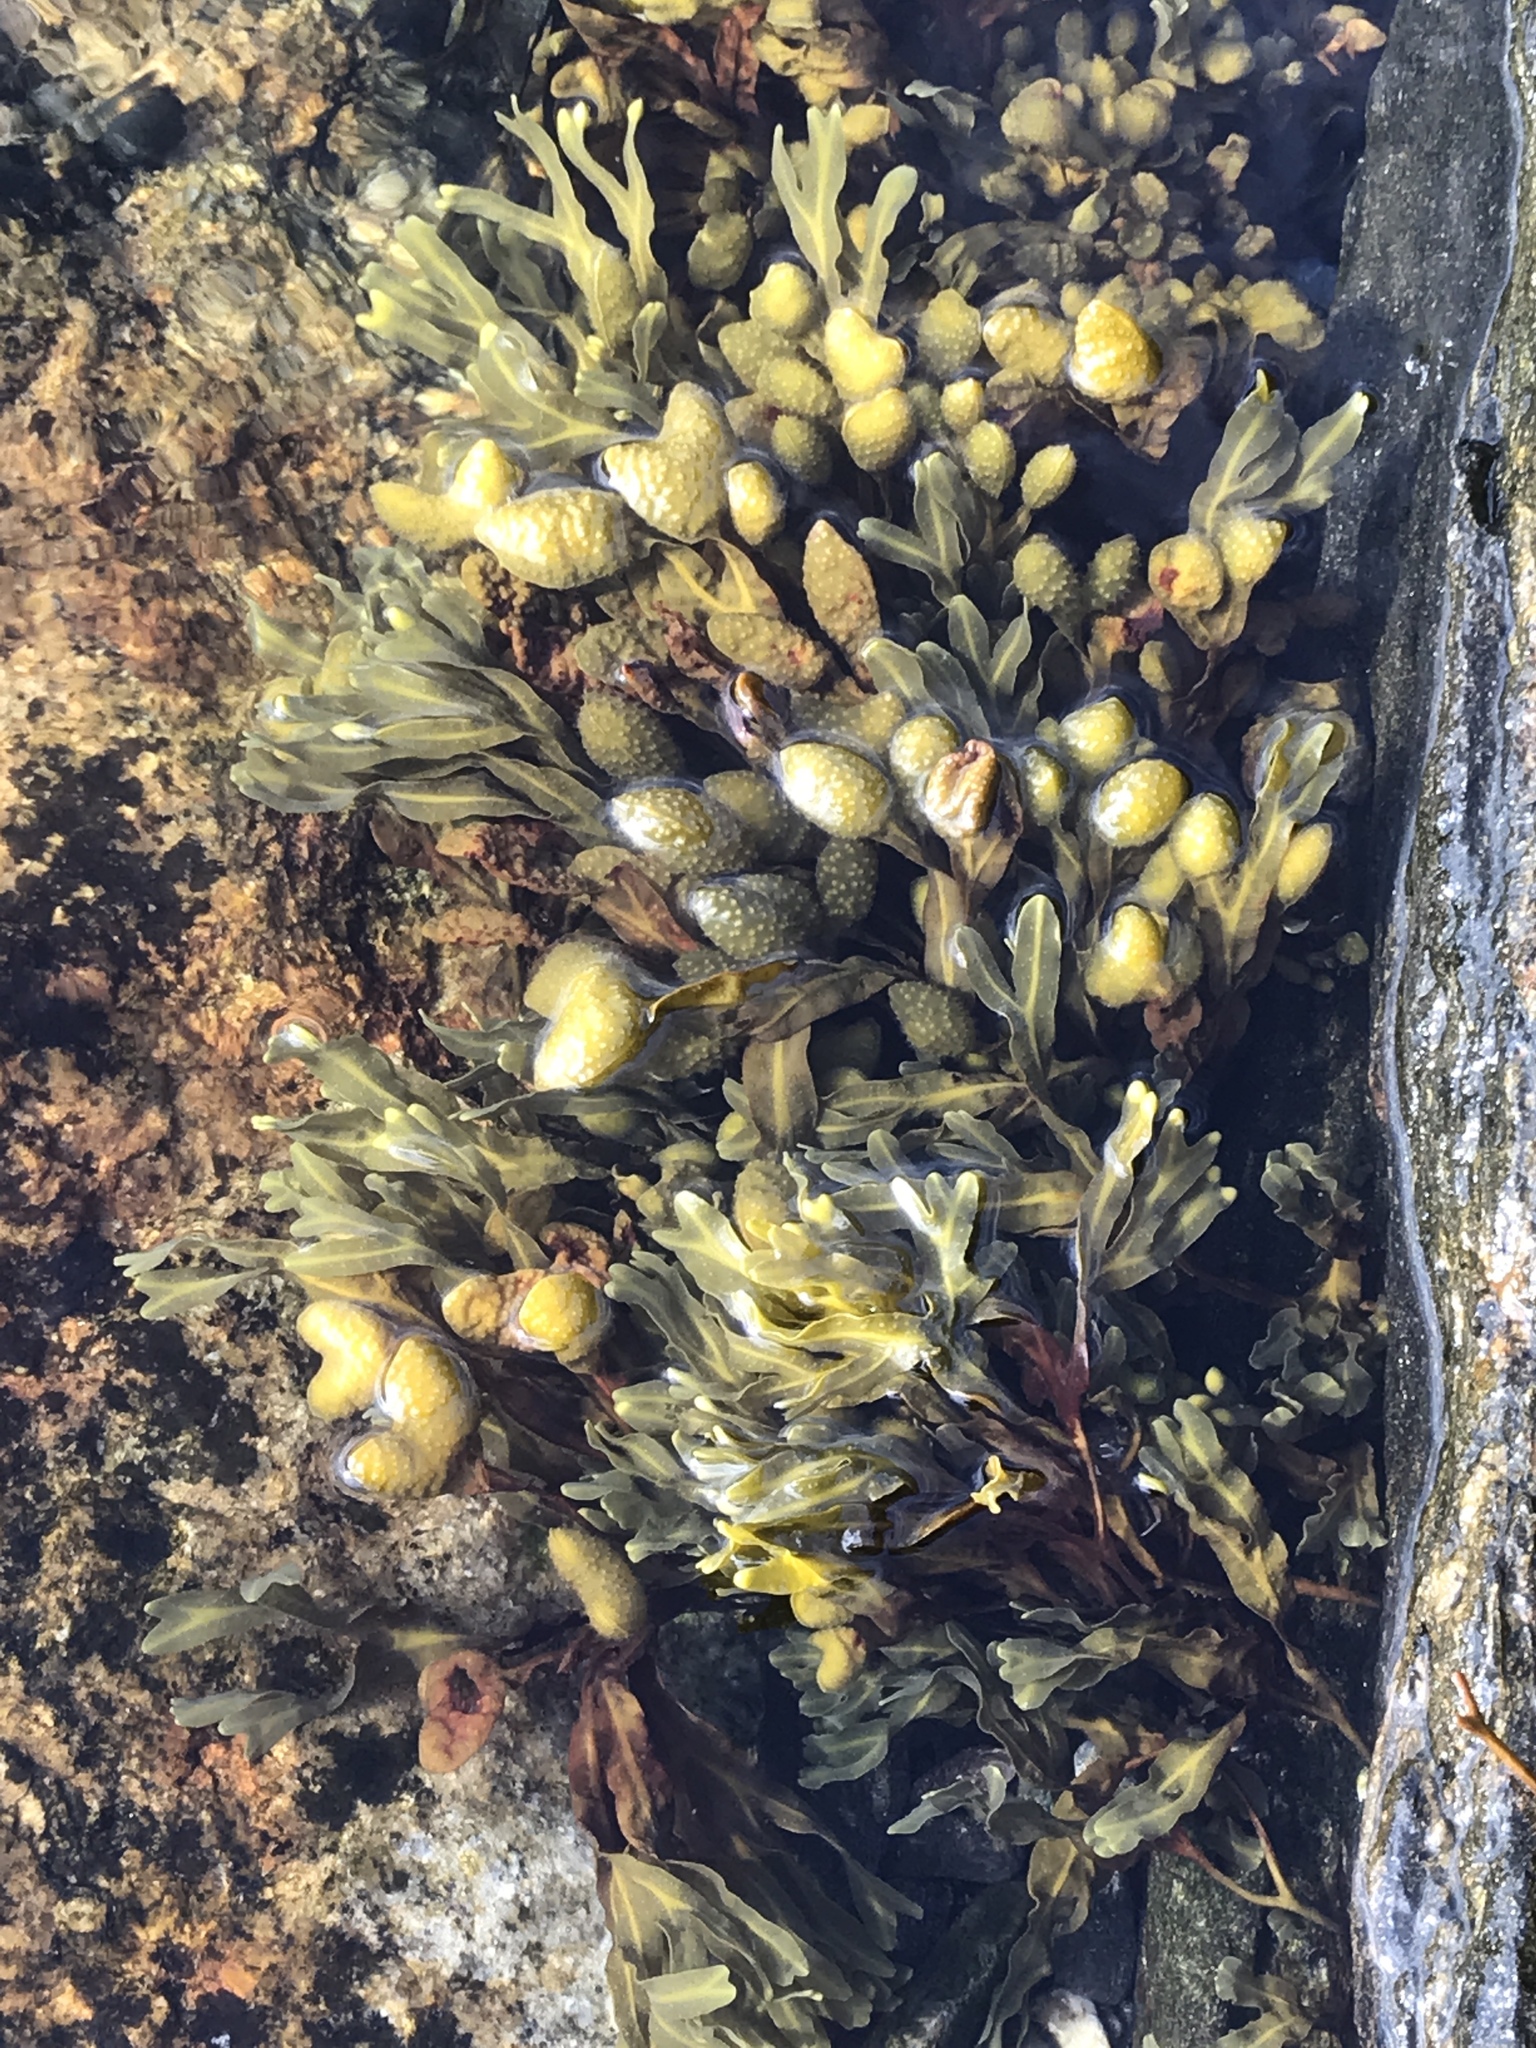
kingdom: Chromista
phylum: Ochrophyta
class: Phaeophyceae
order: Fucales
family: Fucaceae
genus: Fucus
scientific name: Fucus spiralis
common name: Spiral wrack
